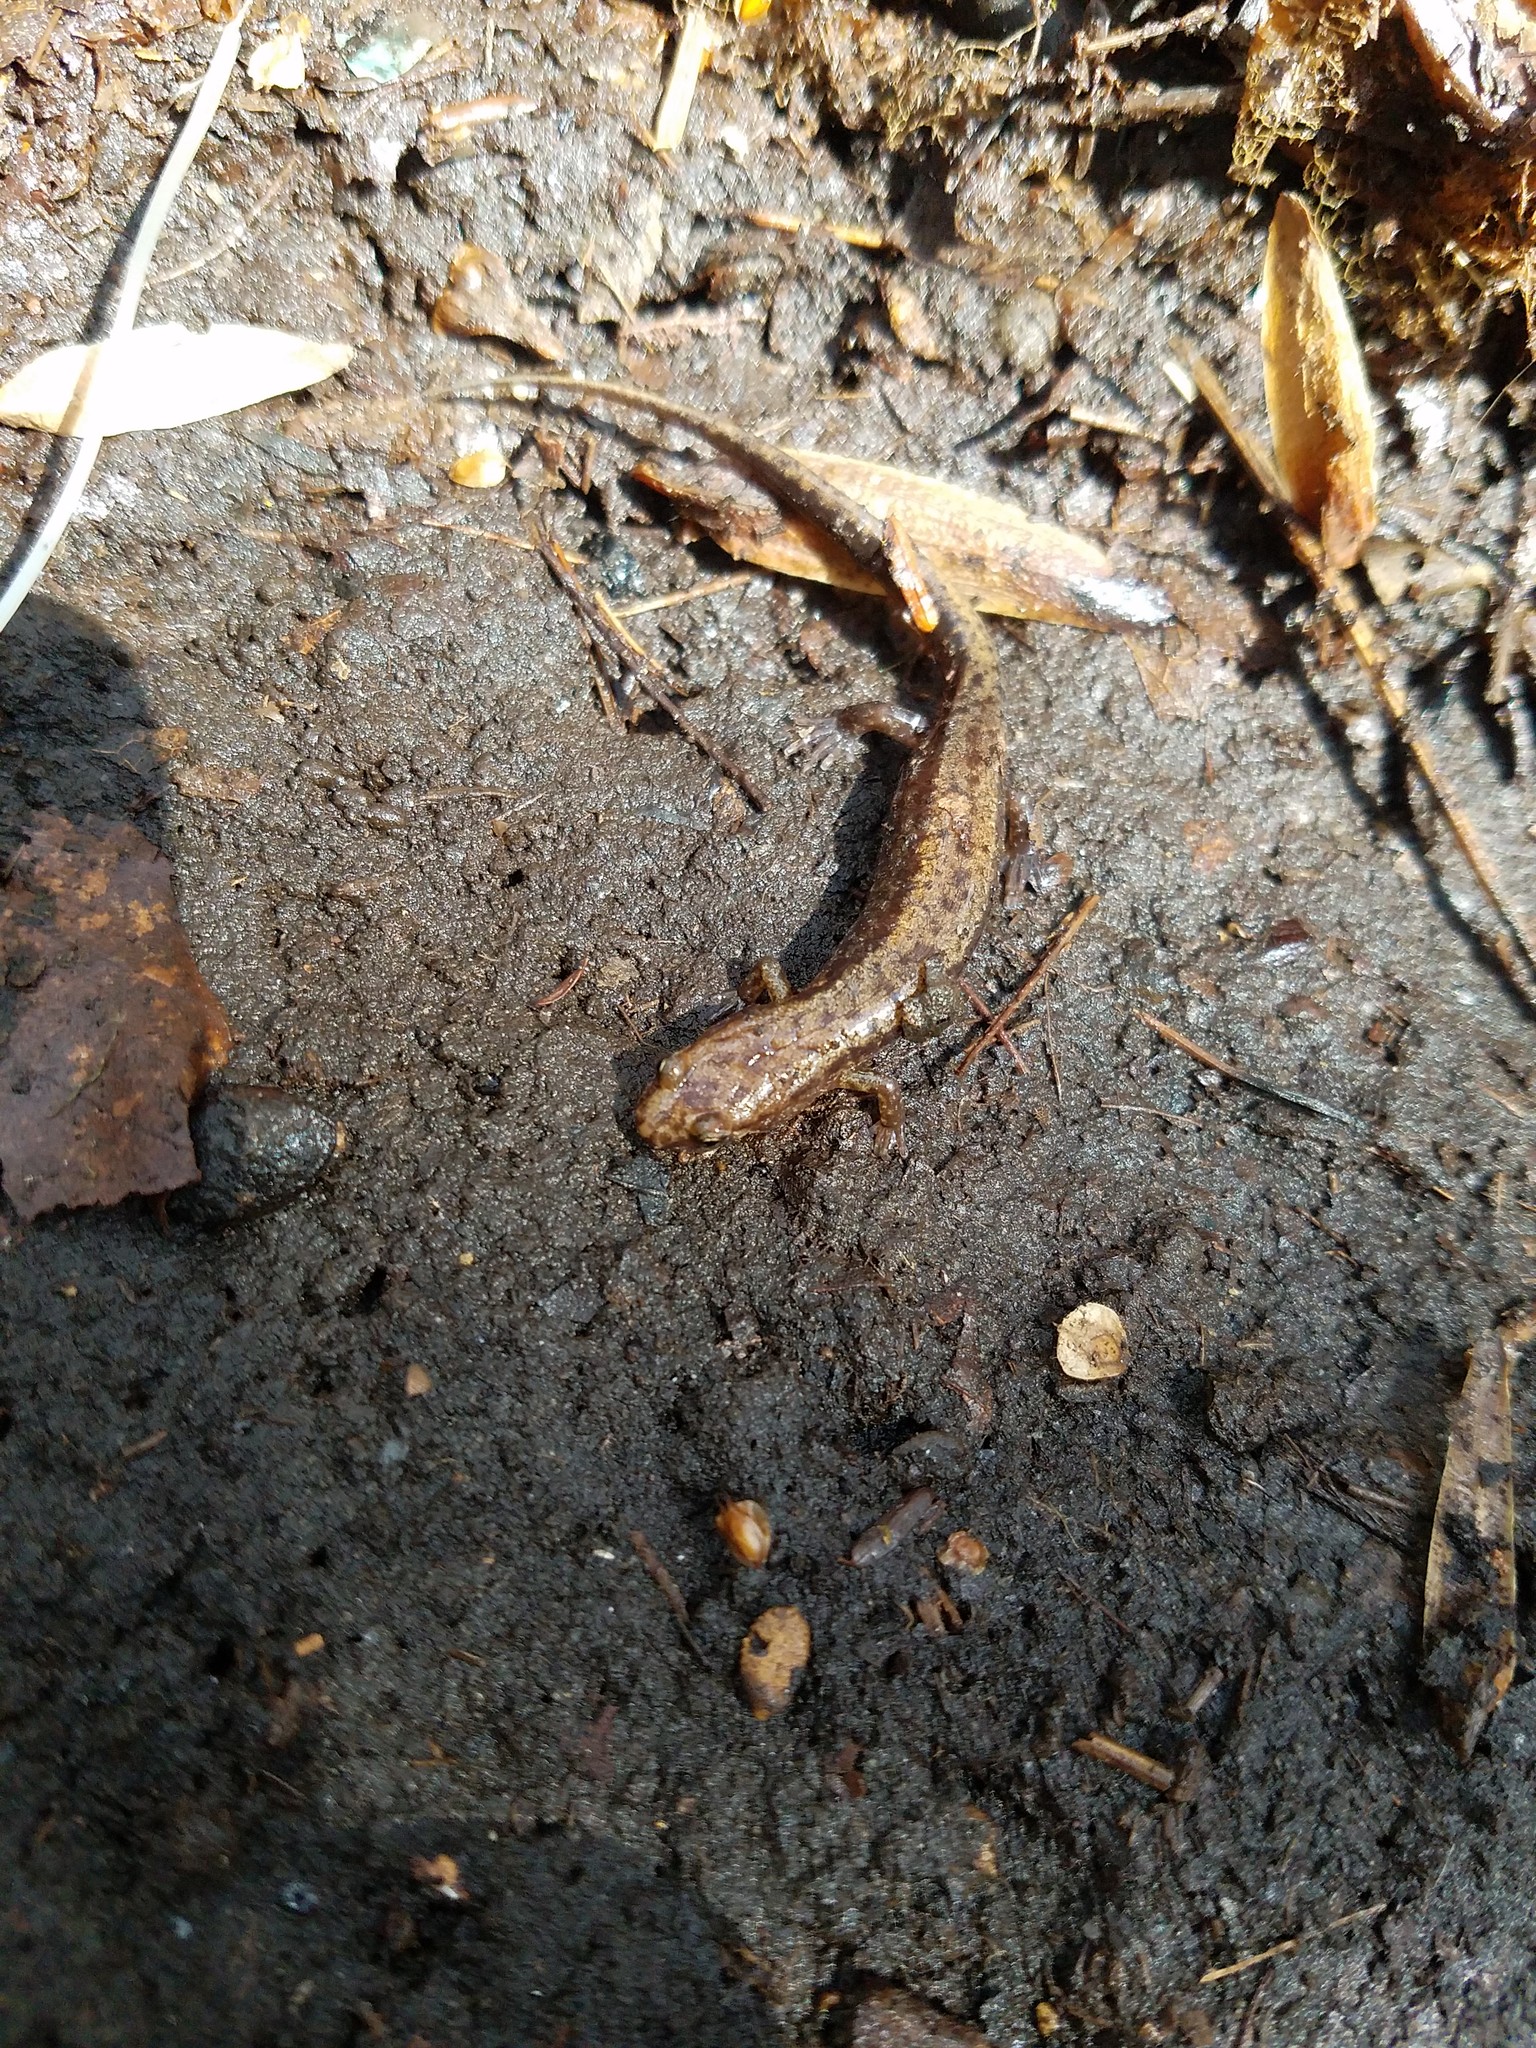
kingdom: Animalia
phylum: Chordata
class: Amphibia
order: Caudata
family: Plethodontidae
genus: Desmognathus
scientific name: Desmognathus ochrophaeus
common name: Allegheny mountain dusky salamander
